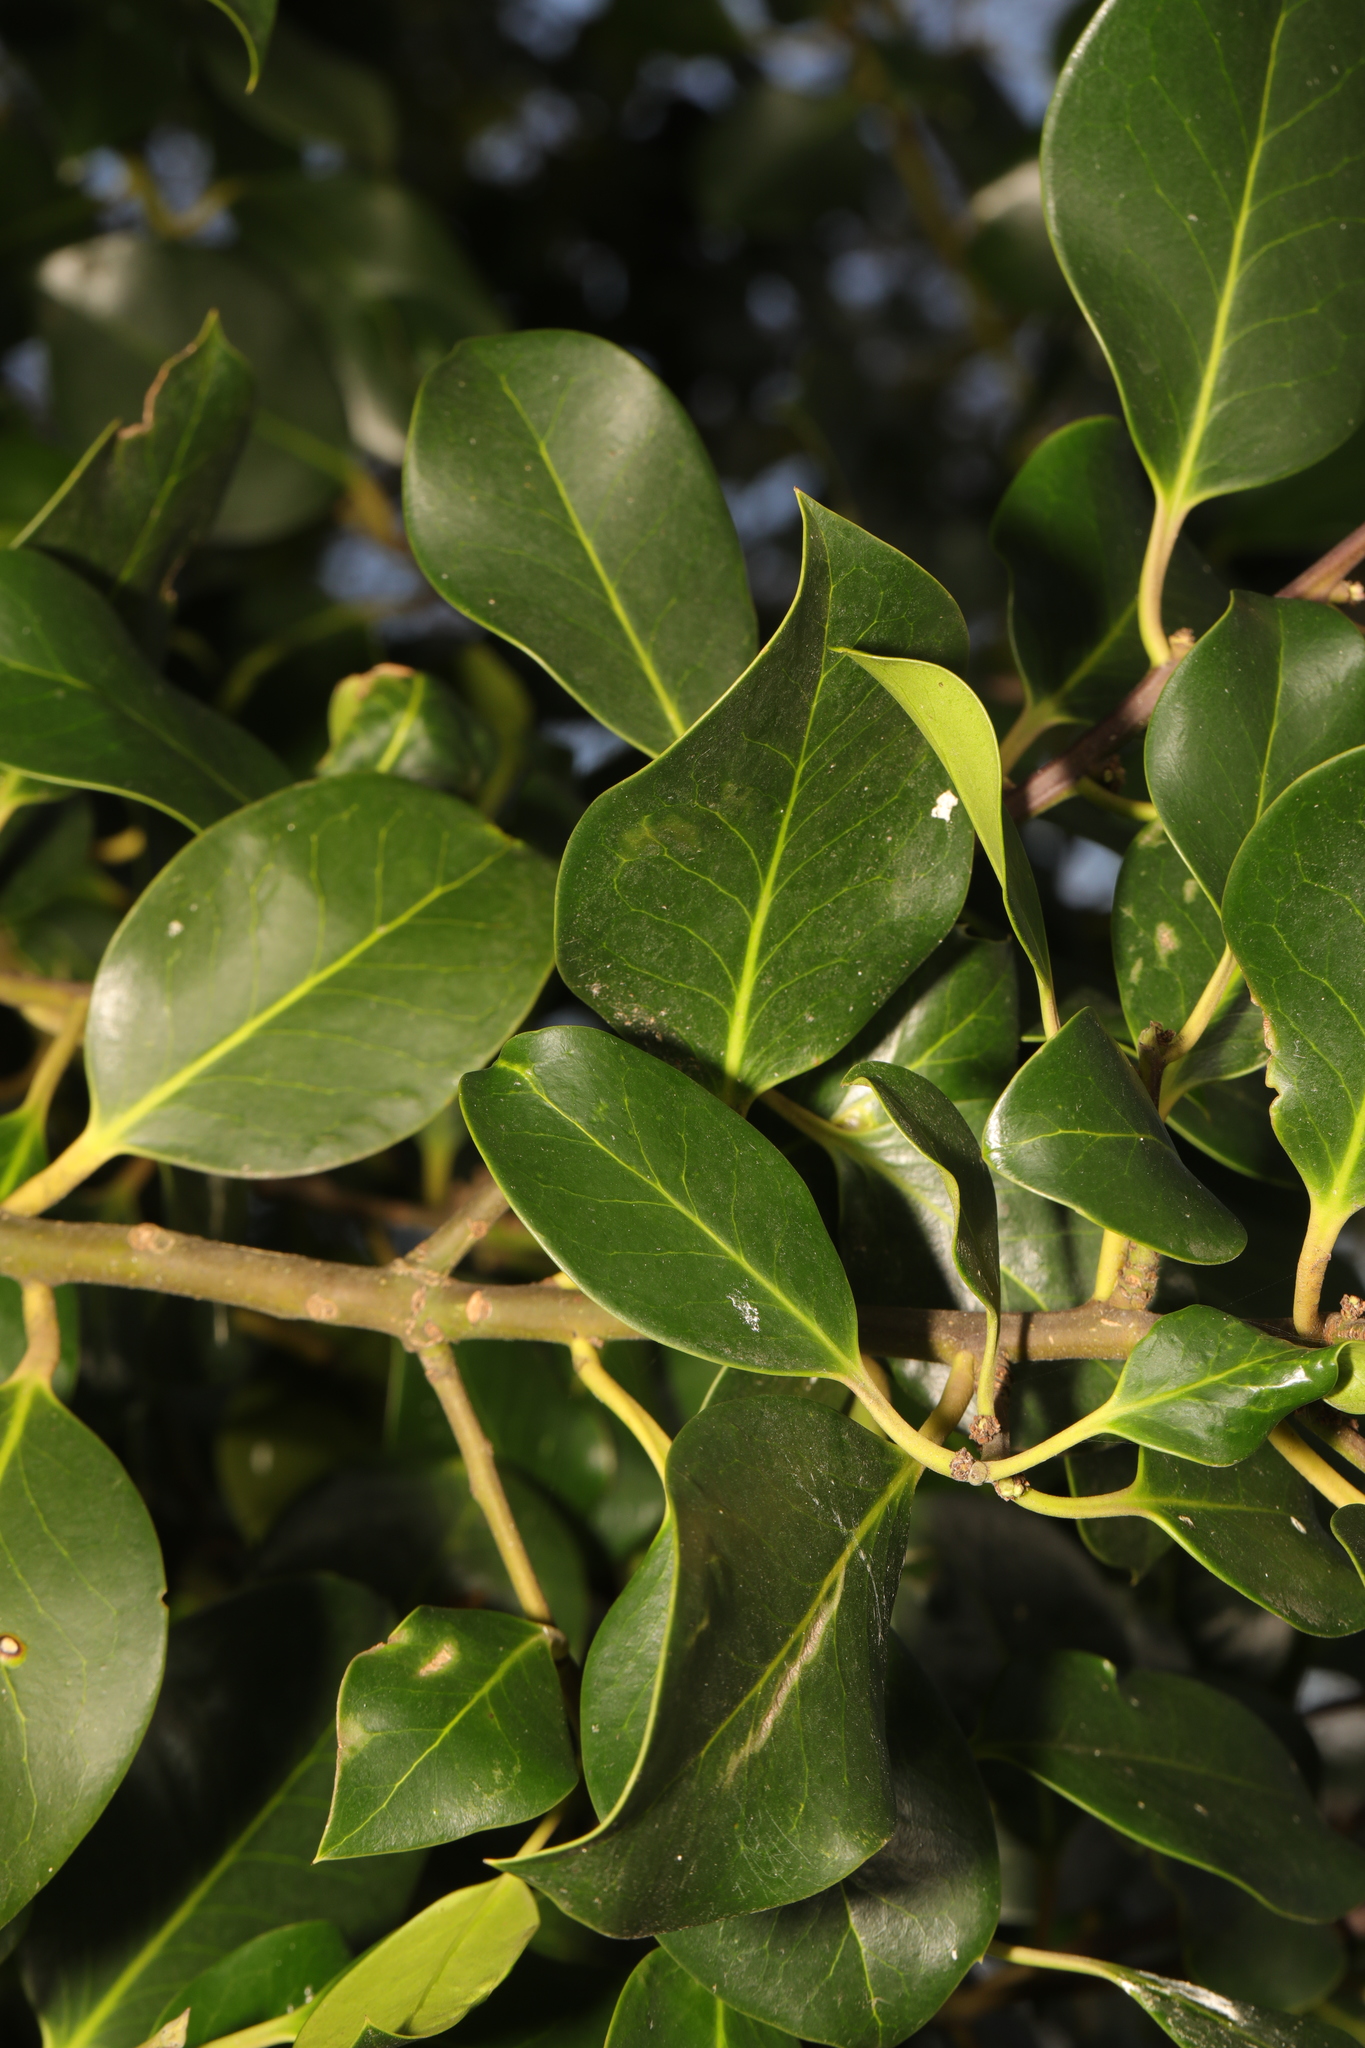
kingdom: Plantae
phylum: Tracheophyta
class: Magnoliopsida
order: Aquifoliales
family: Aquifoliaceae
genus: Ilex
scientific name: Ilex aquifolium
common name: English holly
